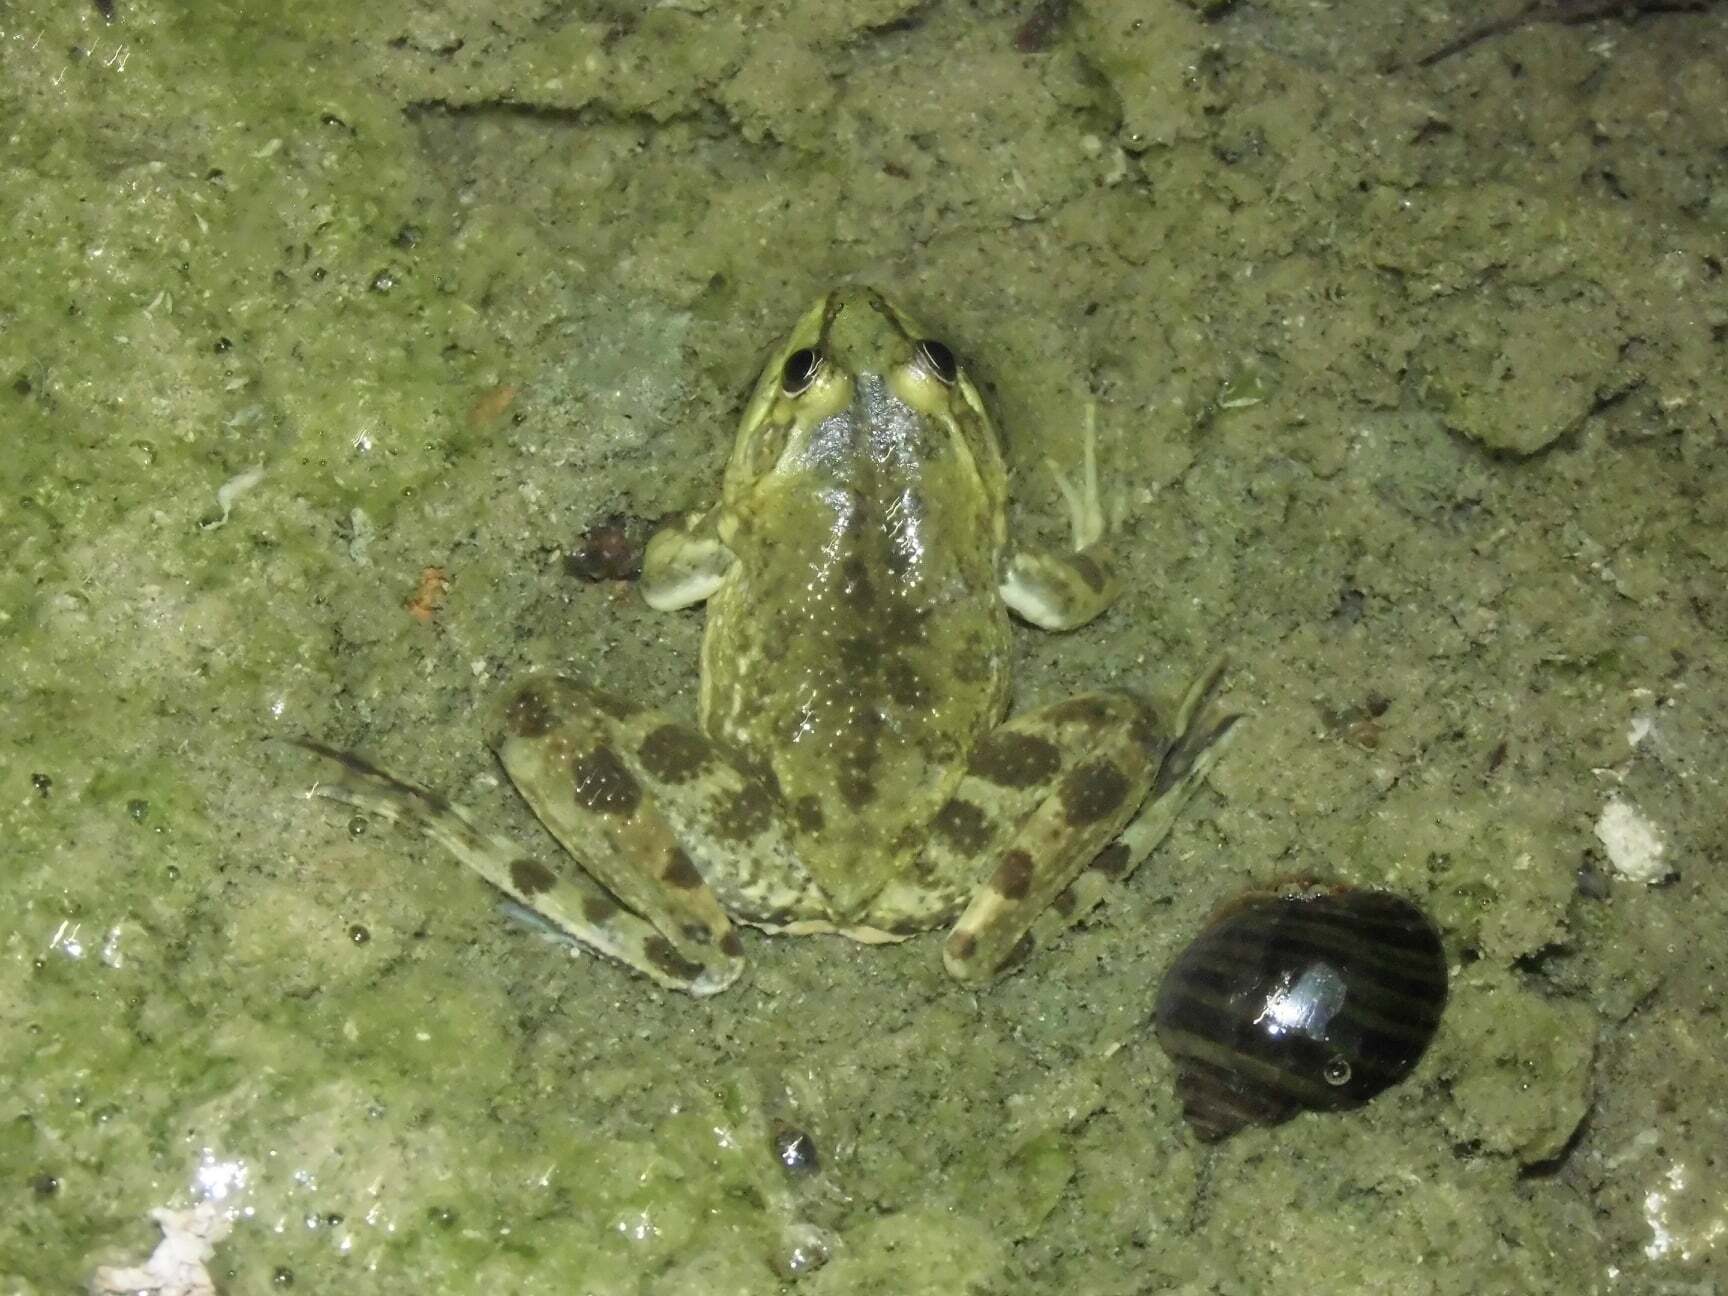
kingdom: Animalia
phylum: Chordata
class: Amphibia
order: Anura
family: Hylidae
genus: Pseudis
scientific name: Pseudis minuta
